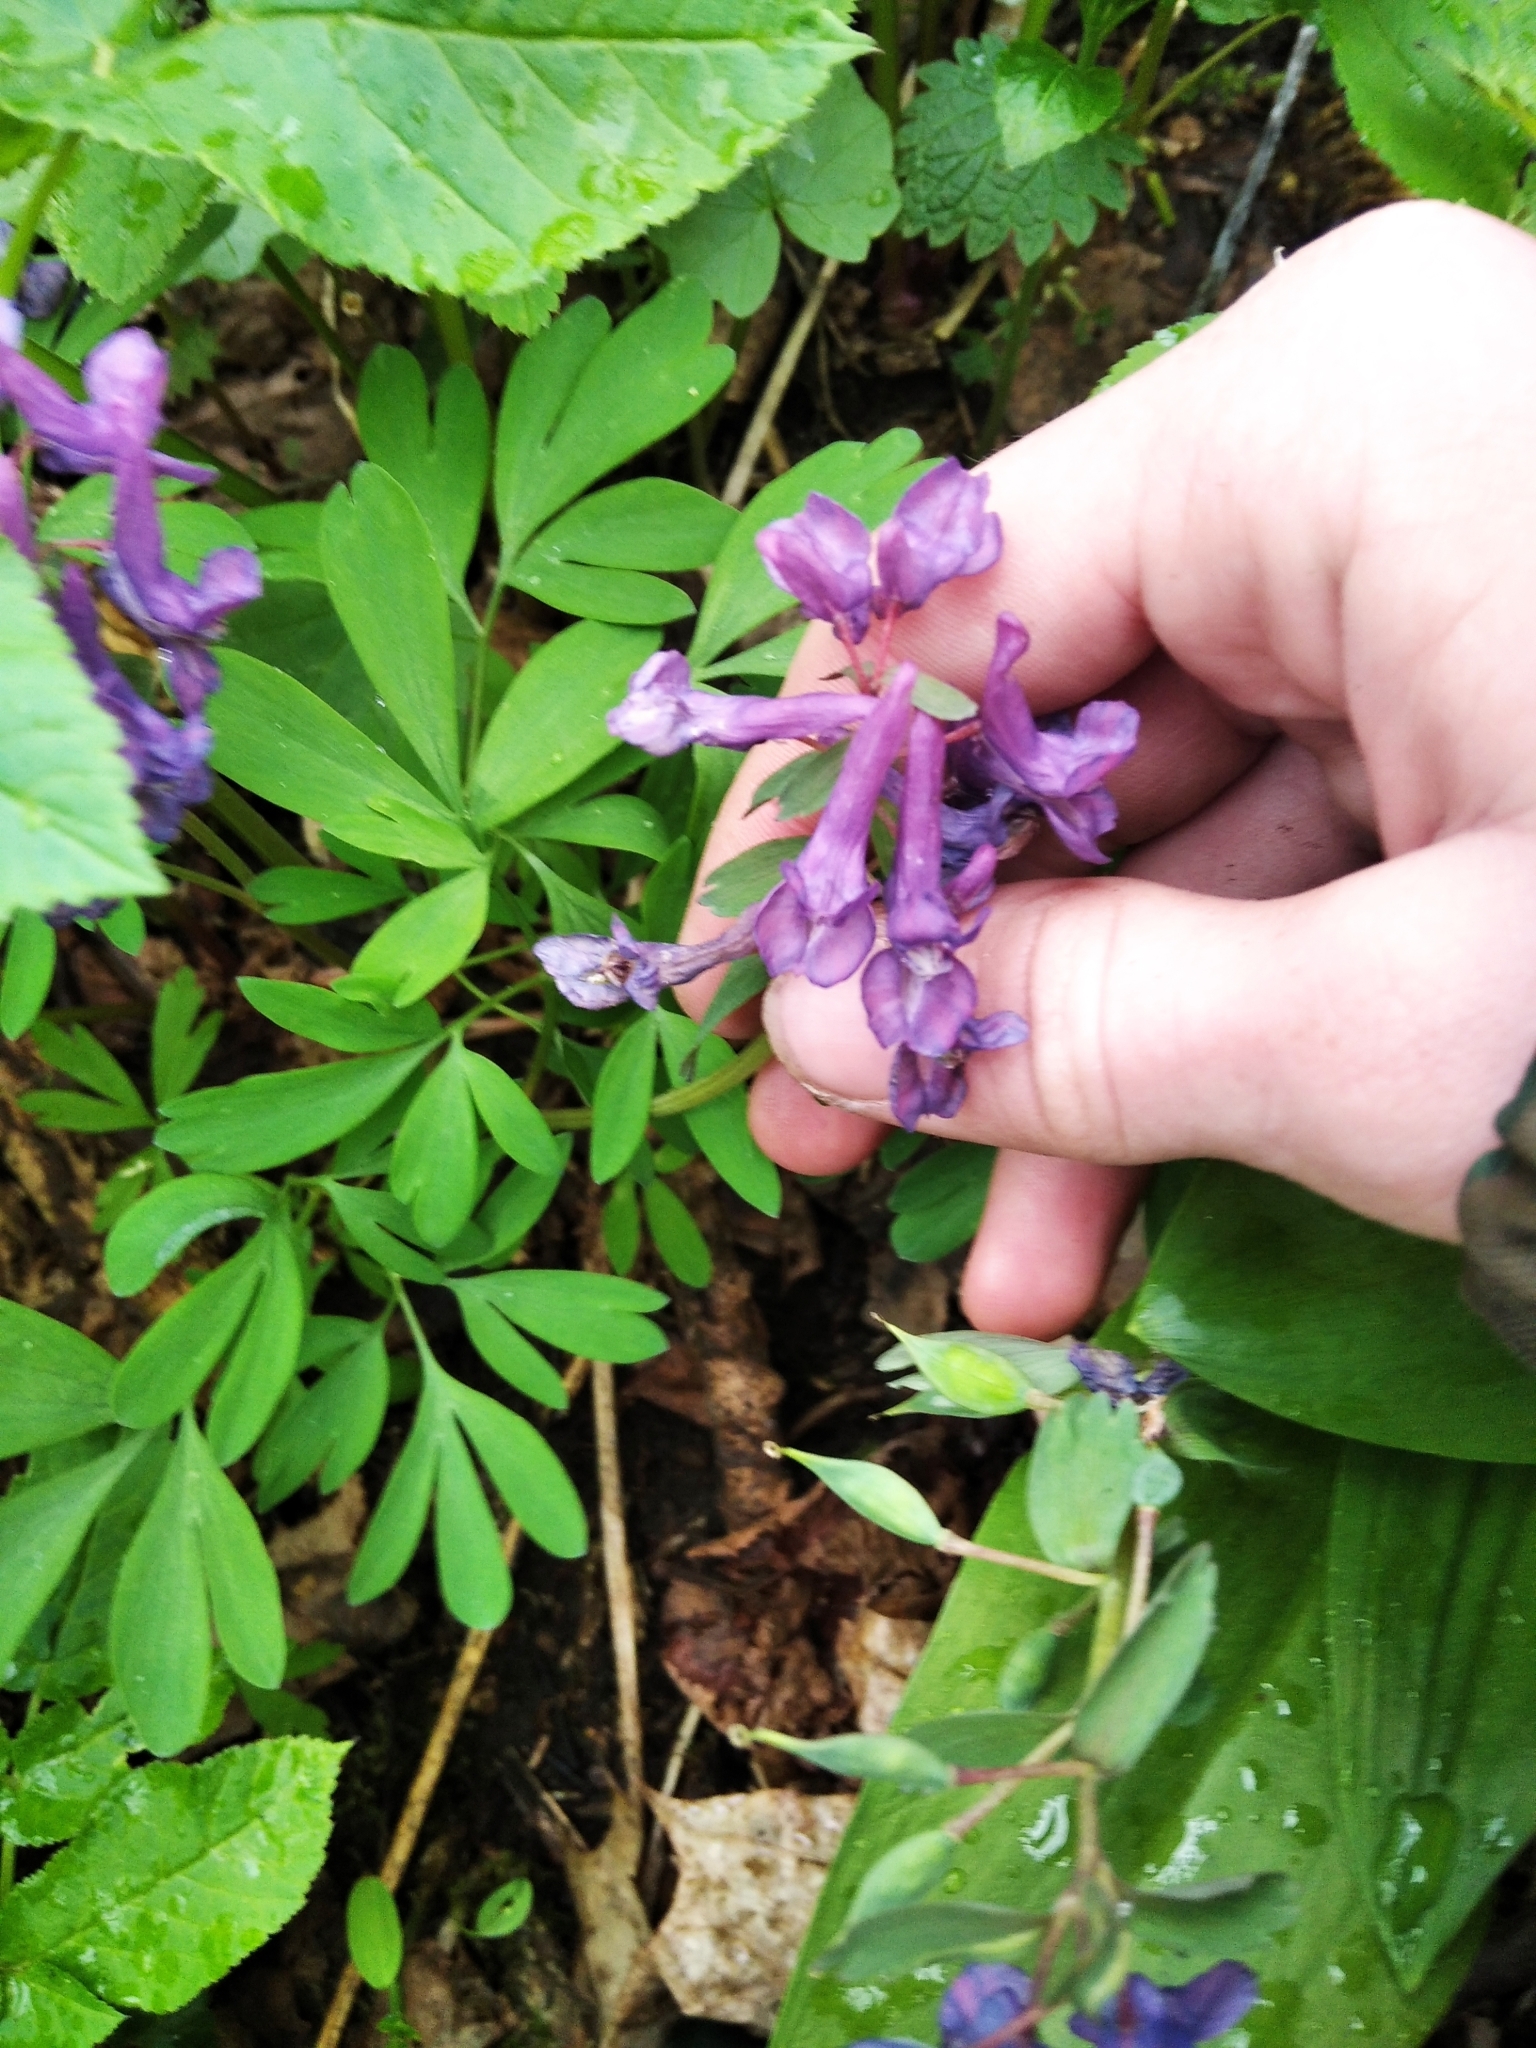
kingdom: Plantae
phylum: Tracheophyta
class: Magnoliopsida
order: Ranunculales
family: Papaveraceae
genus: Corydalis
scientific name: Corydalis solida
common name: Bird-in-a-bush
